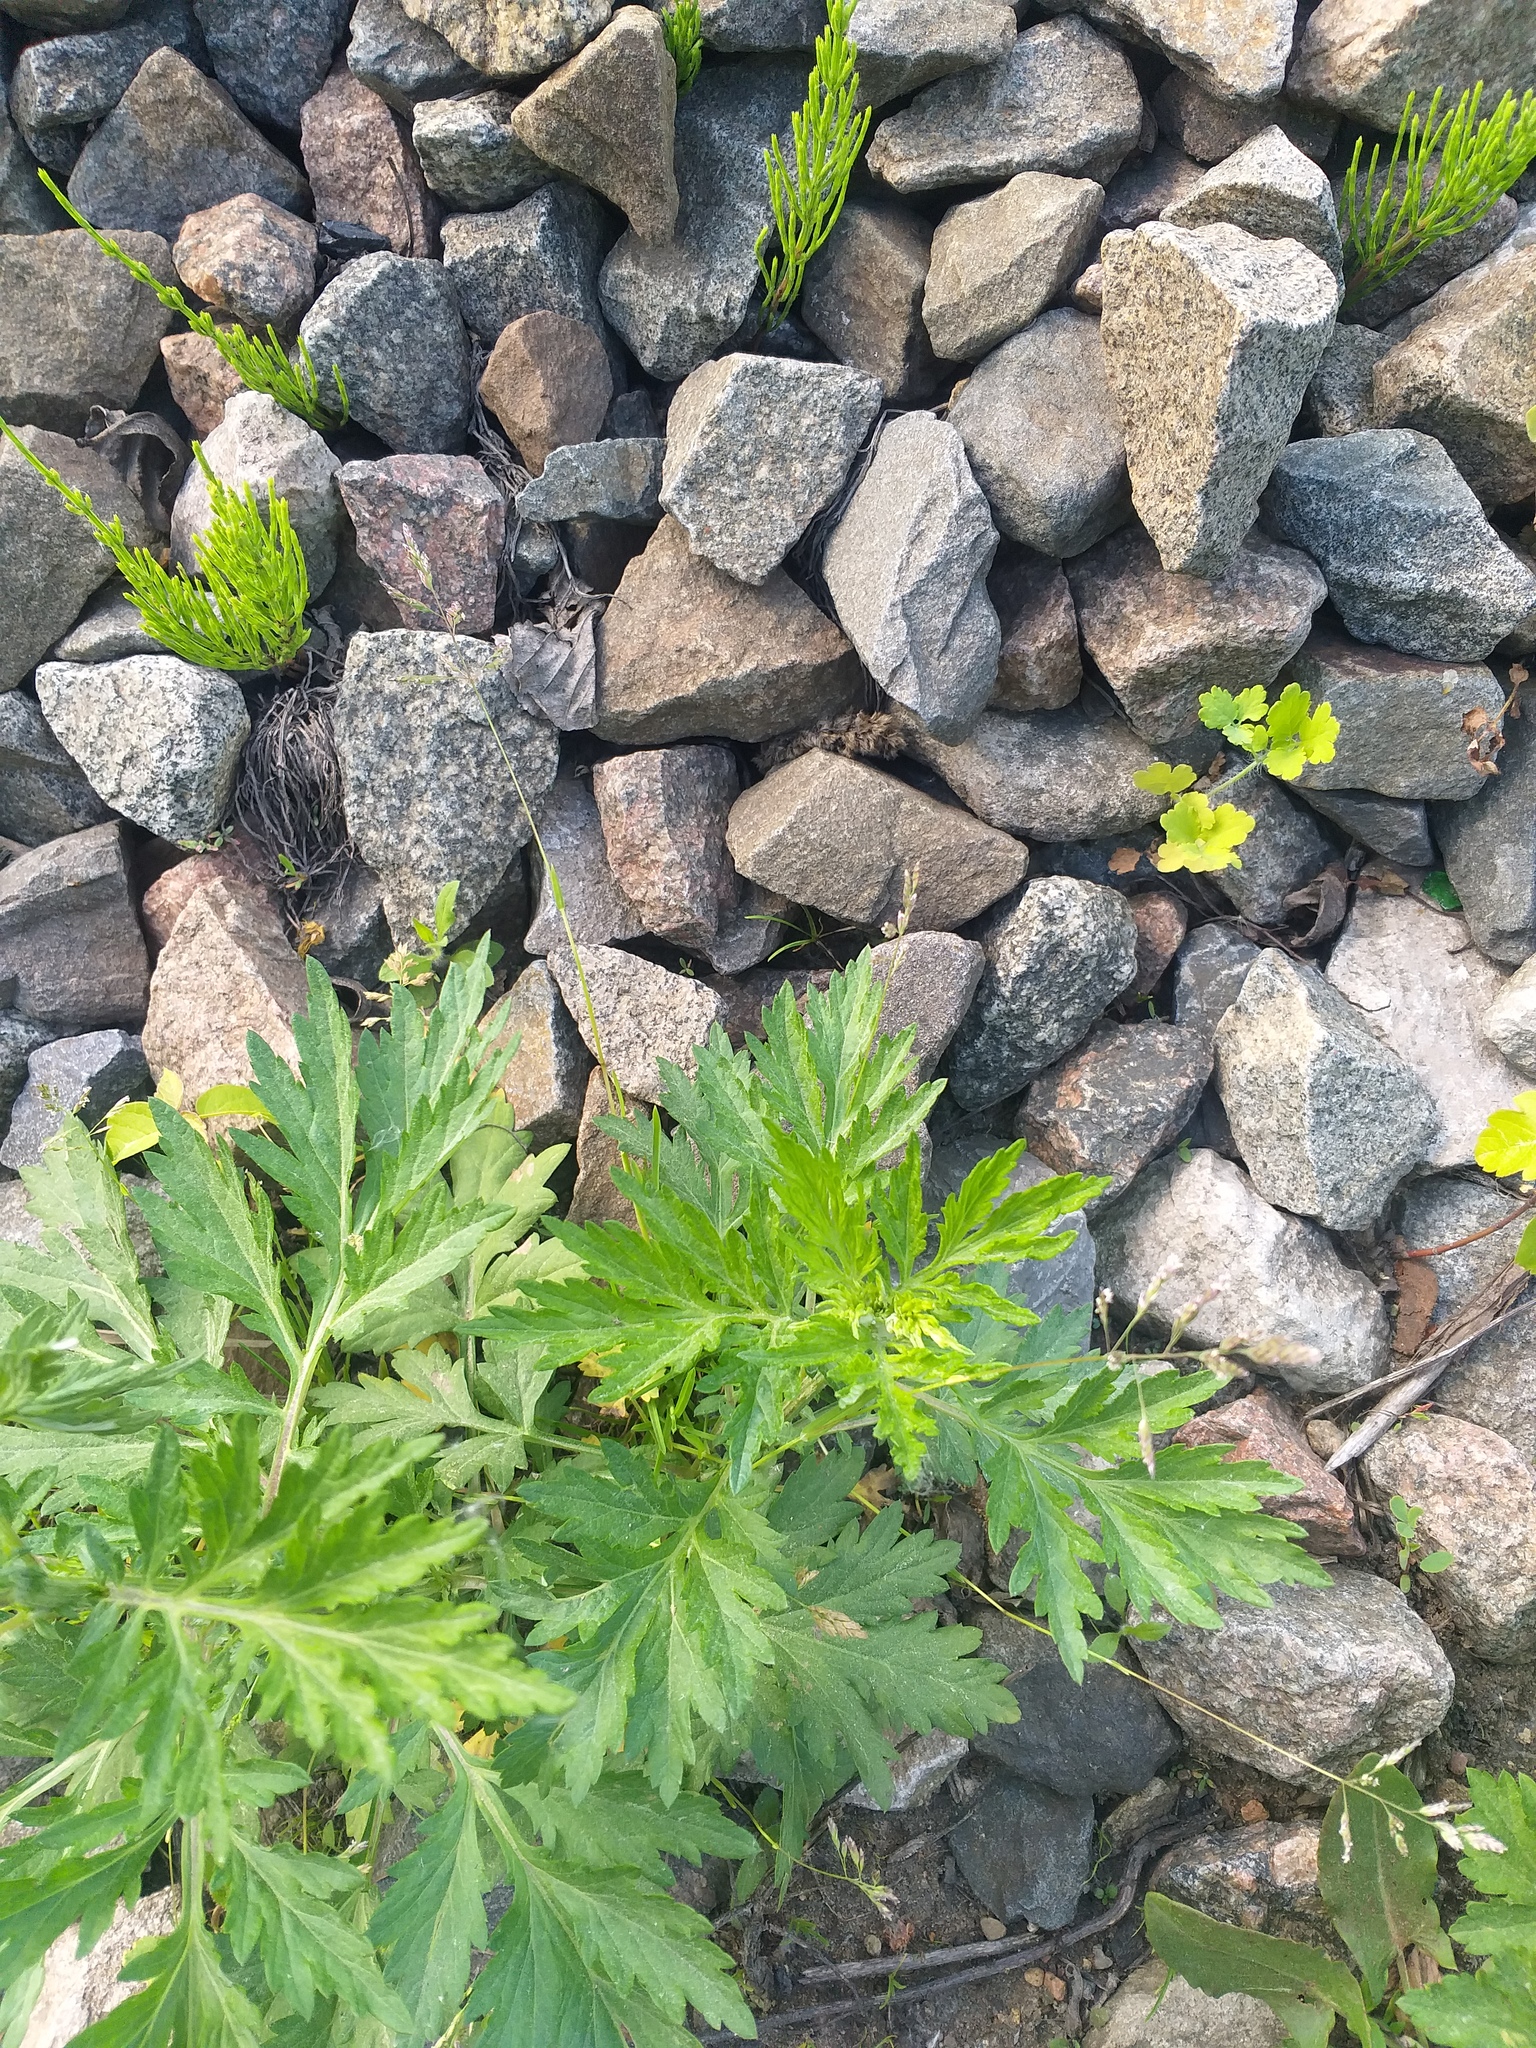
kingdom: Plantae
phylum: Tracheophyta
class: Magnoliopsida
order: Asterales
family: Asteraceae
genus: Artemisia
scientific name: Artemisia vulgaris
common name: Mugwort
